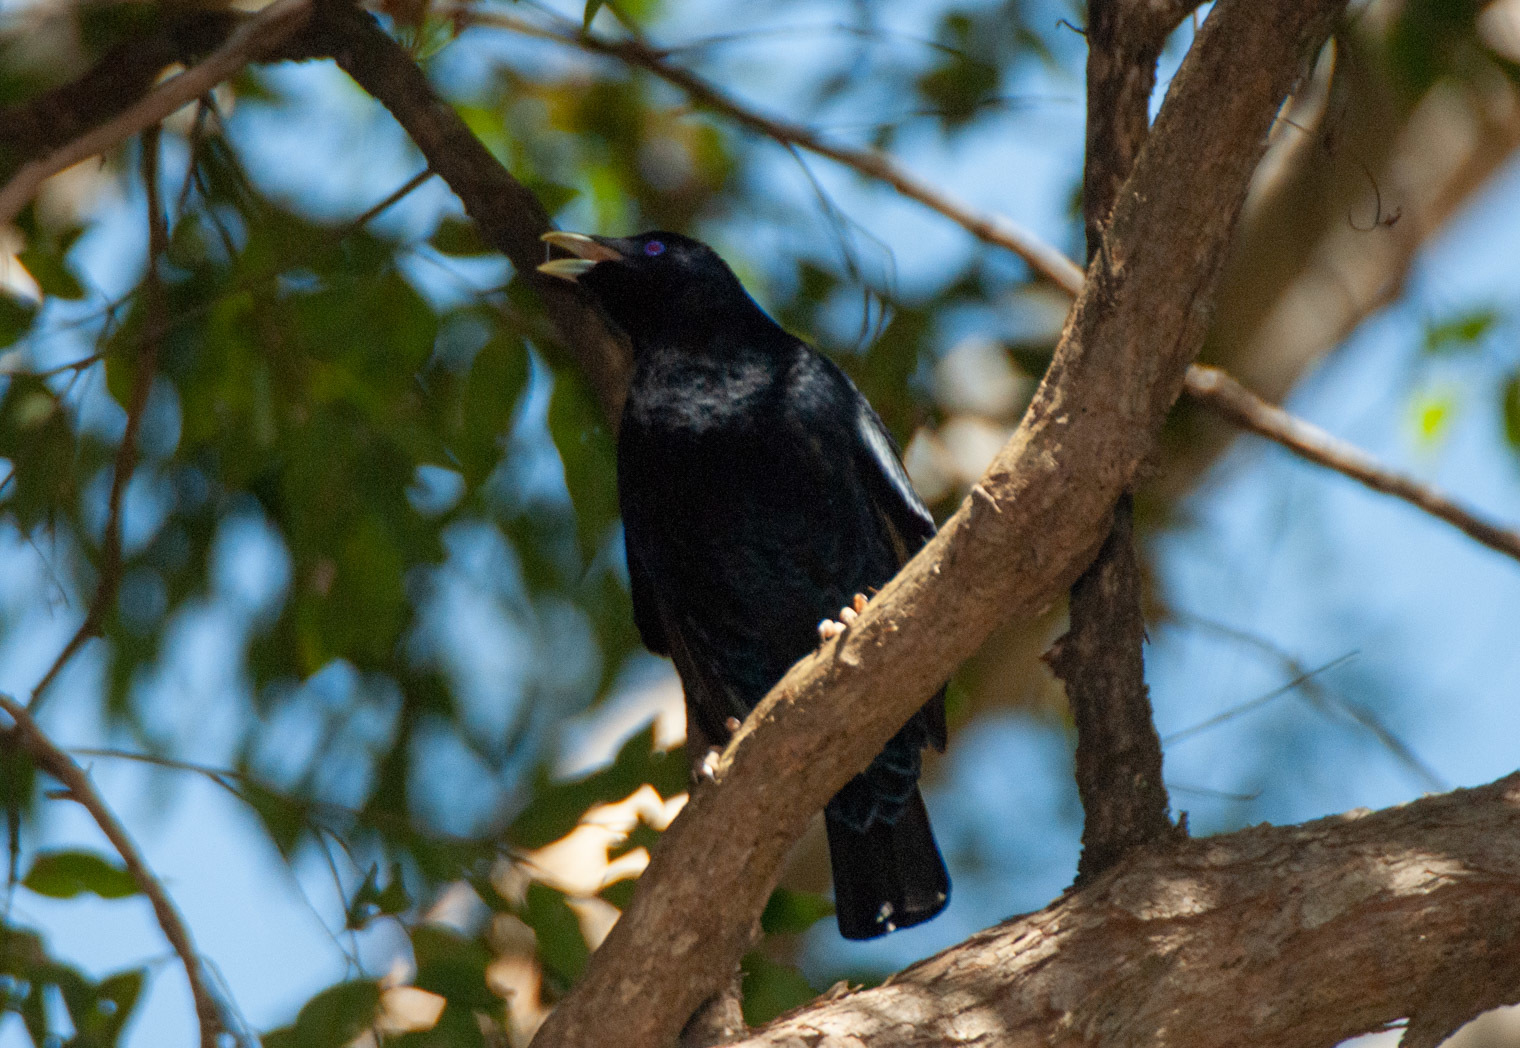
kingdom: Animalia
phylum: Chordata
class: Aves
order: Passeriformes
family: Ptilonorhynchidae
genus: Ptilonorhynchus
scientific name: Ptilonorhynchus violaceus
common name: Satin bowerbird
